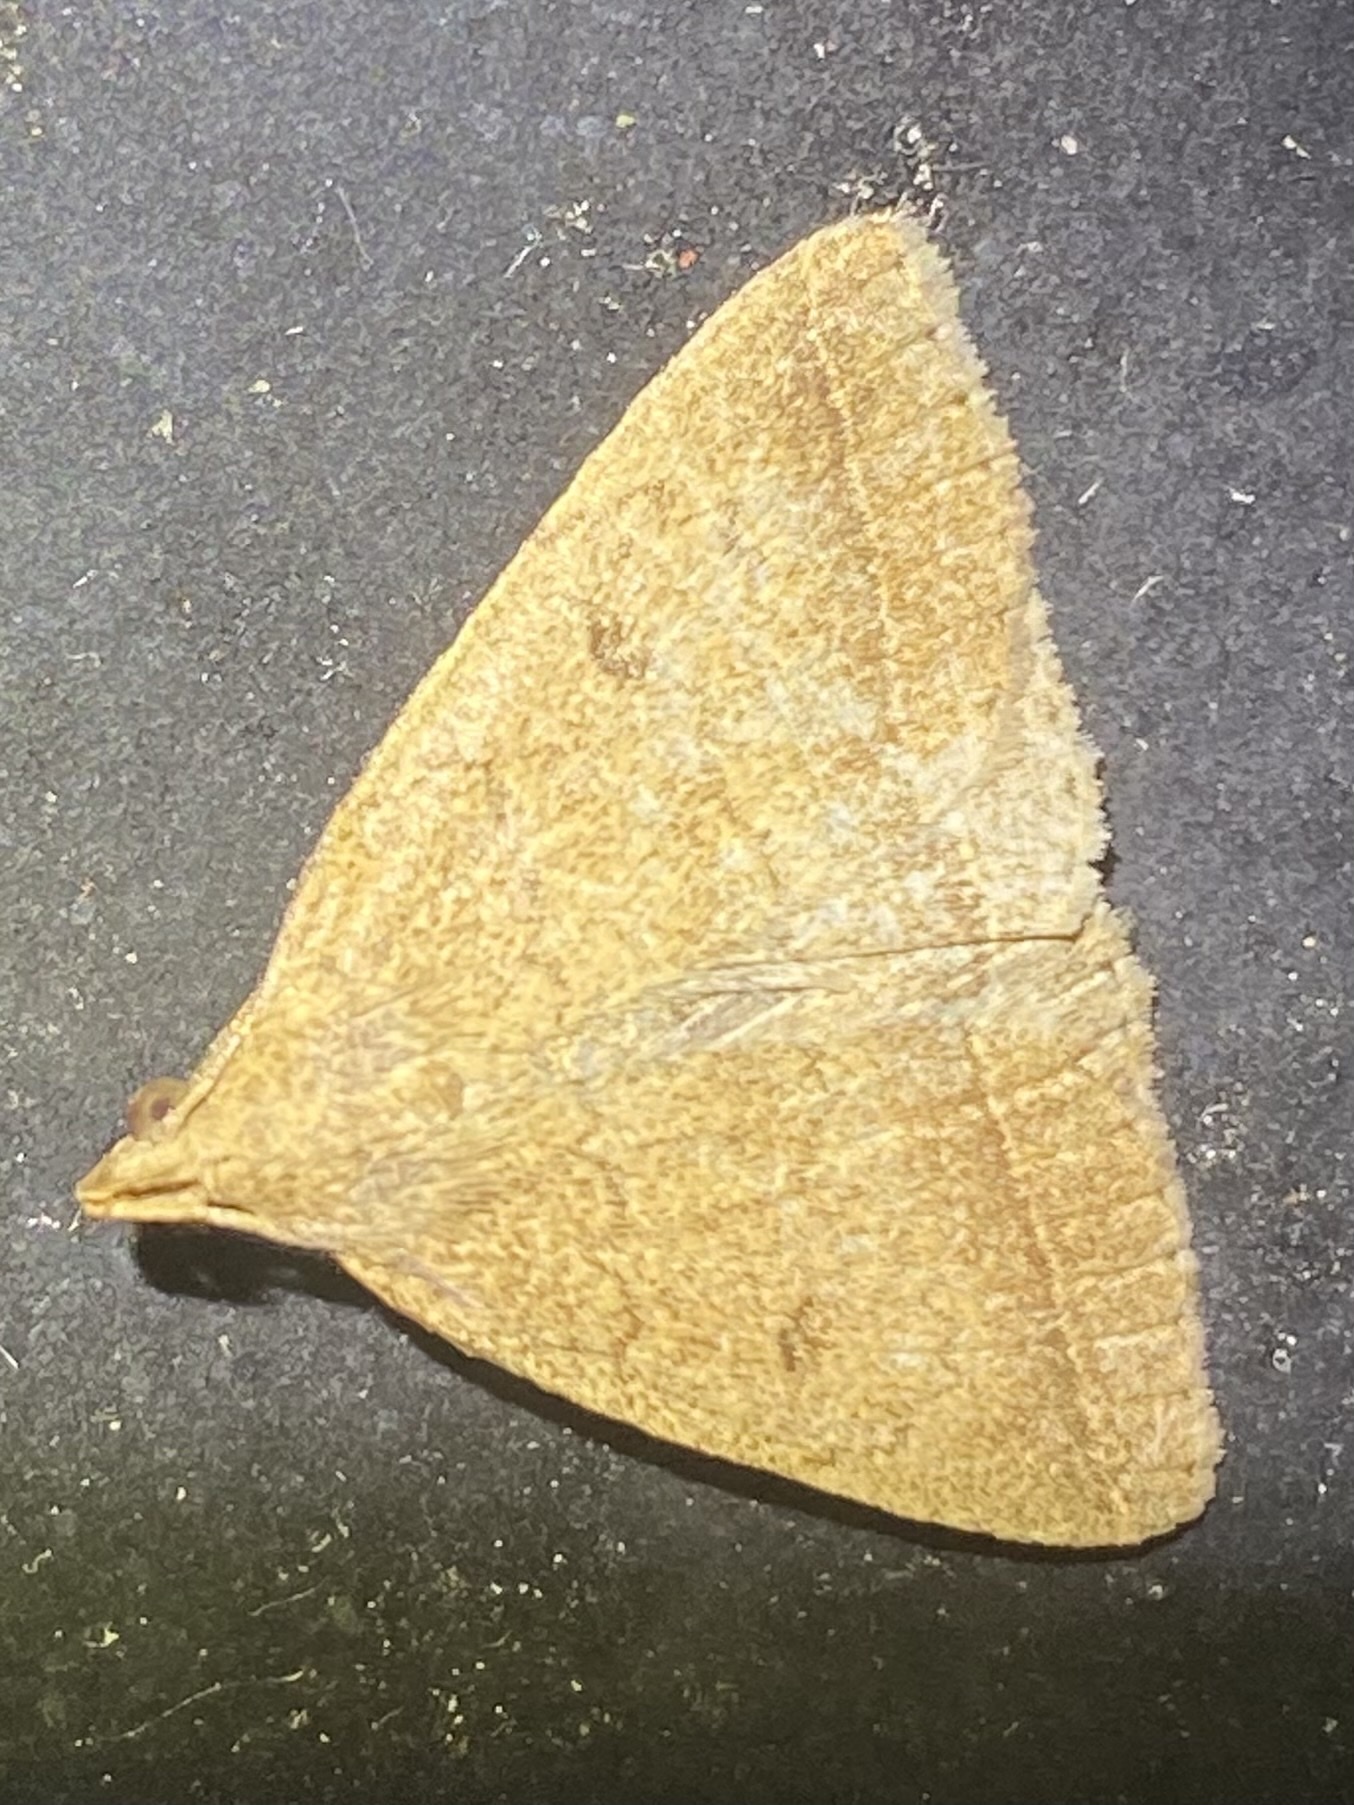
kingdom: Animalia
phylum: Arthropoda
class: Insecta
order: Lepidoptera
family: Erebidae
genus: Zanclognatha
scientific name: Zanclognatha jacchusalis
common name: Yellowish zanclognatha
